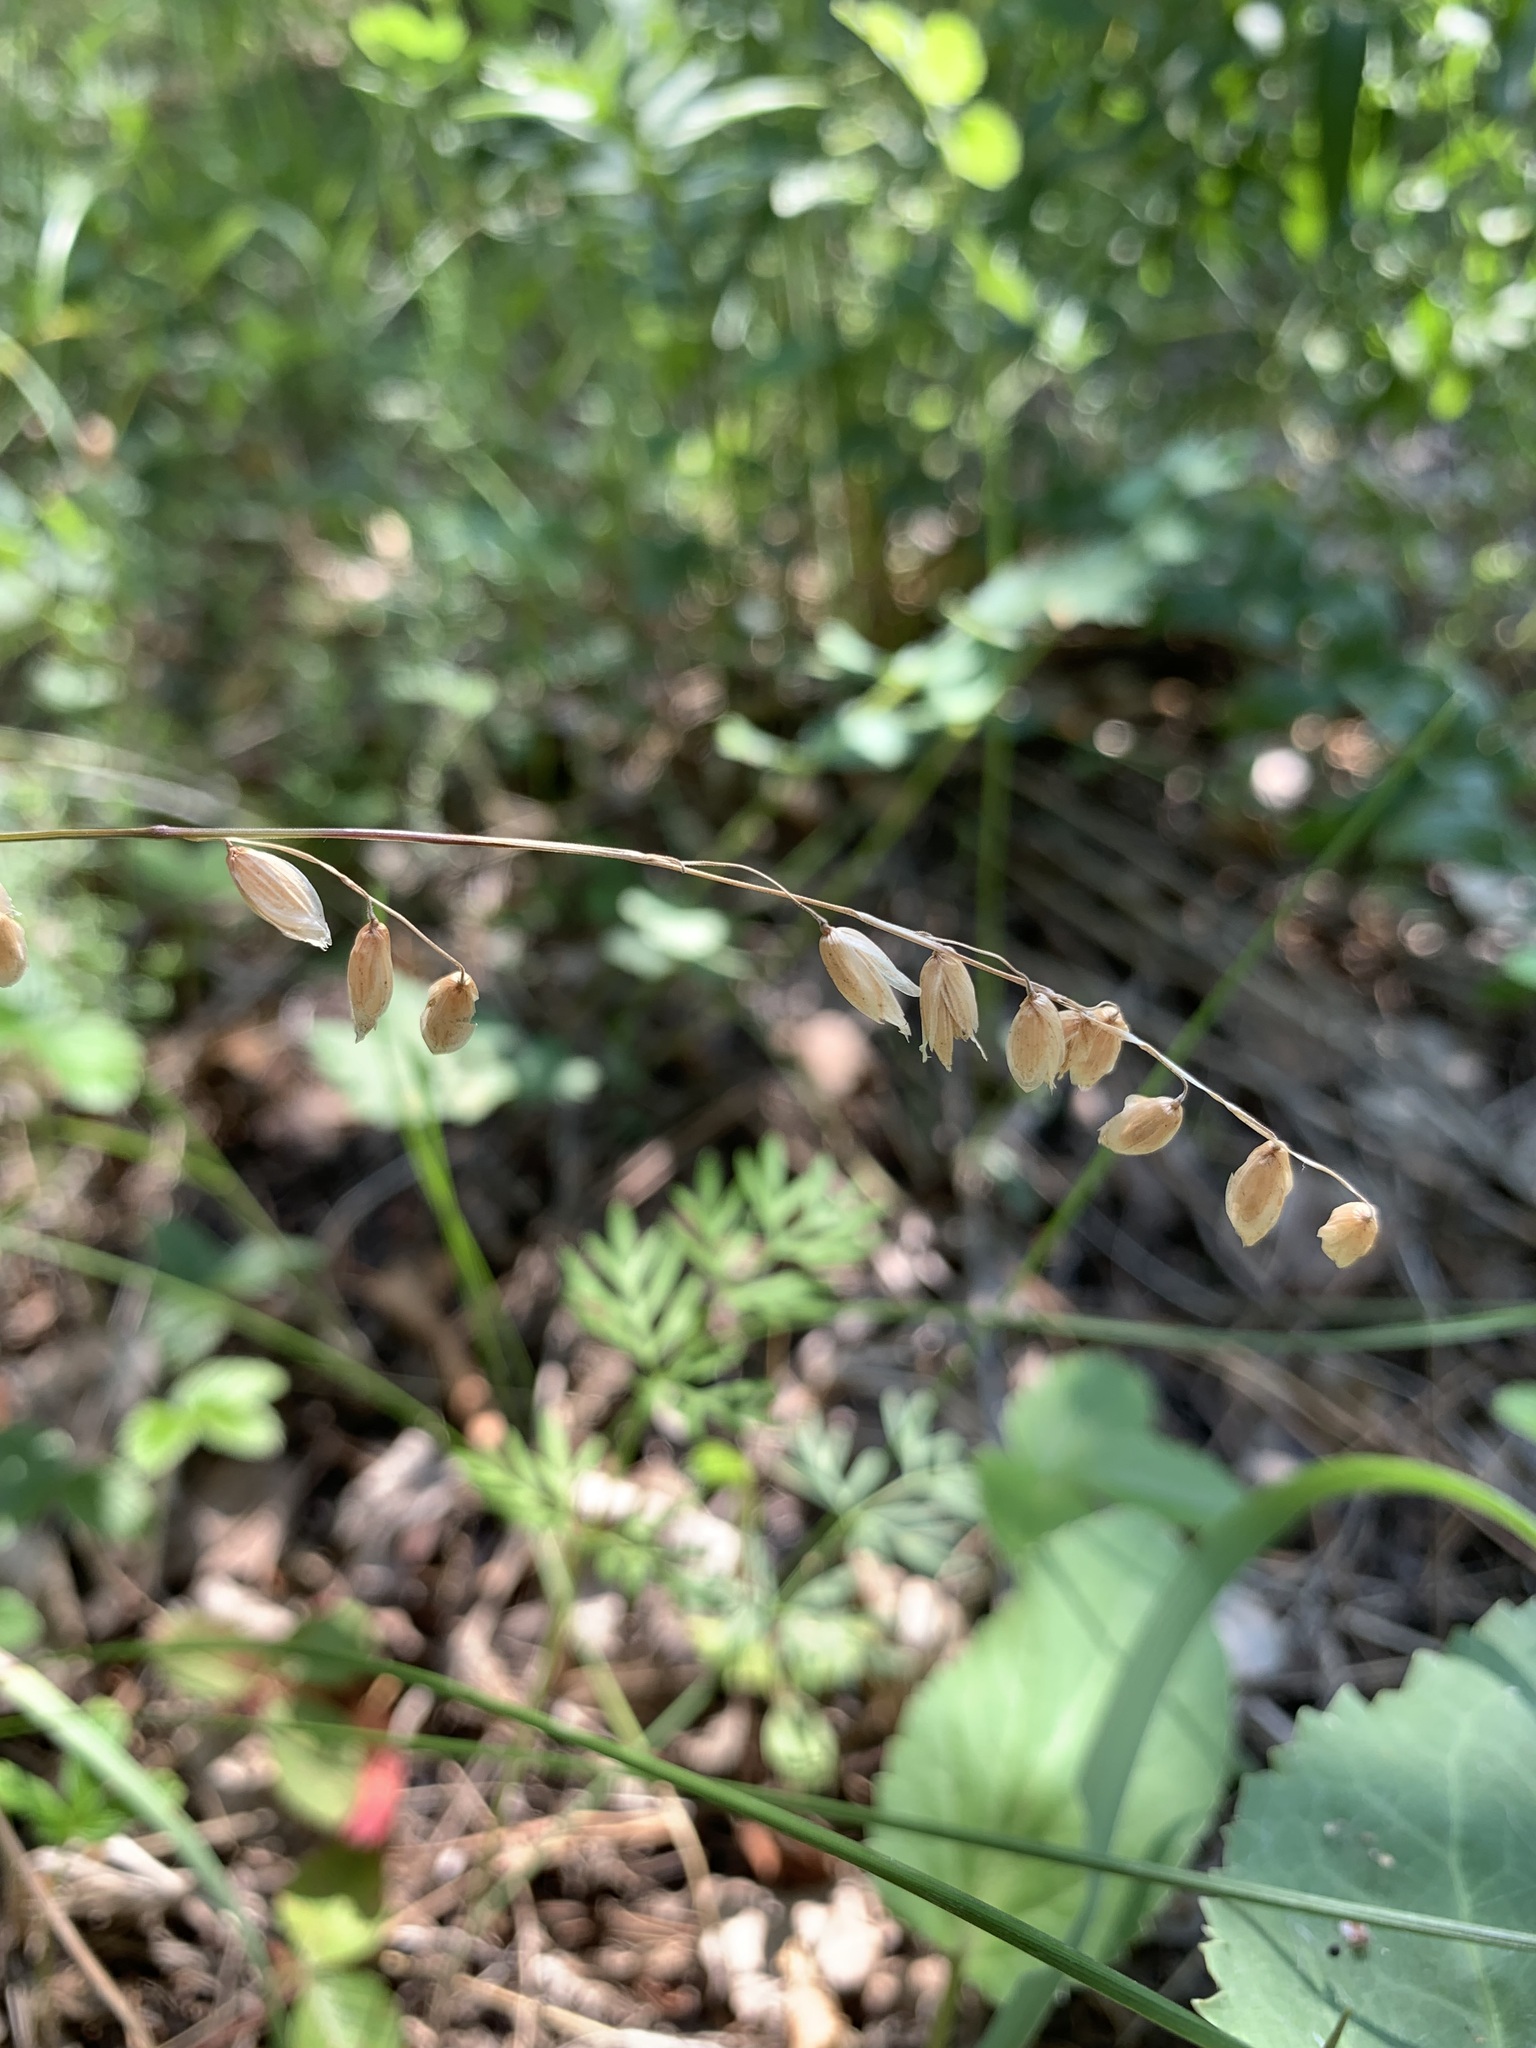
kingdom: Plantae
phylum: Tracheophyta
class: Liliopsida
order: Poales
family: Poaceae
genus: Melica
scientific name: Melica nutans
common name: Mountain melick
